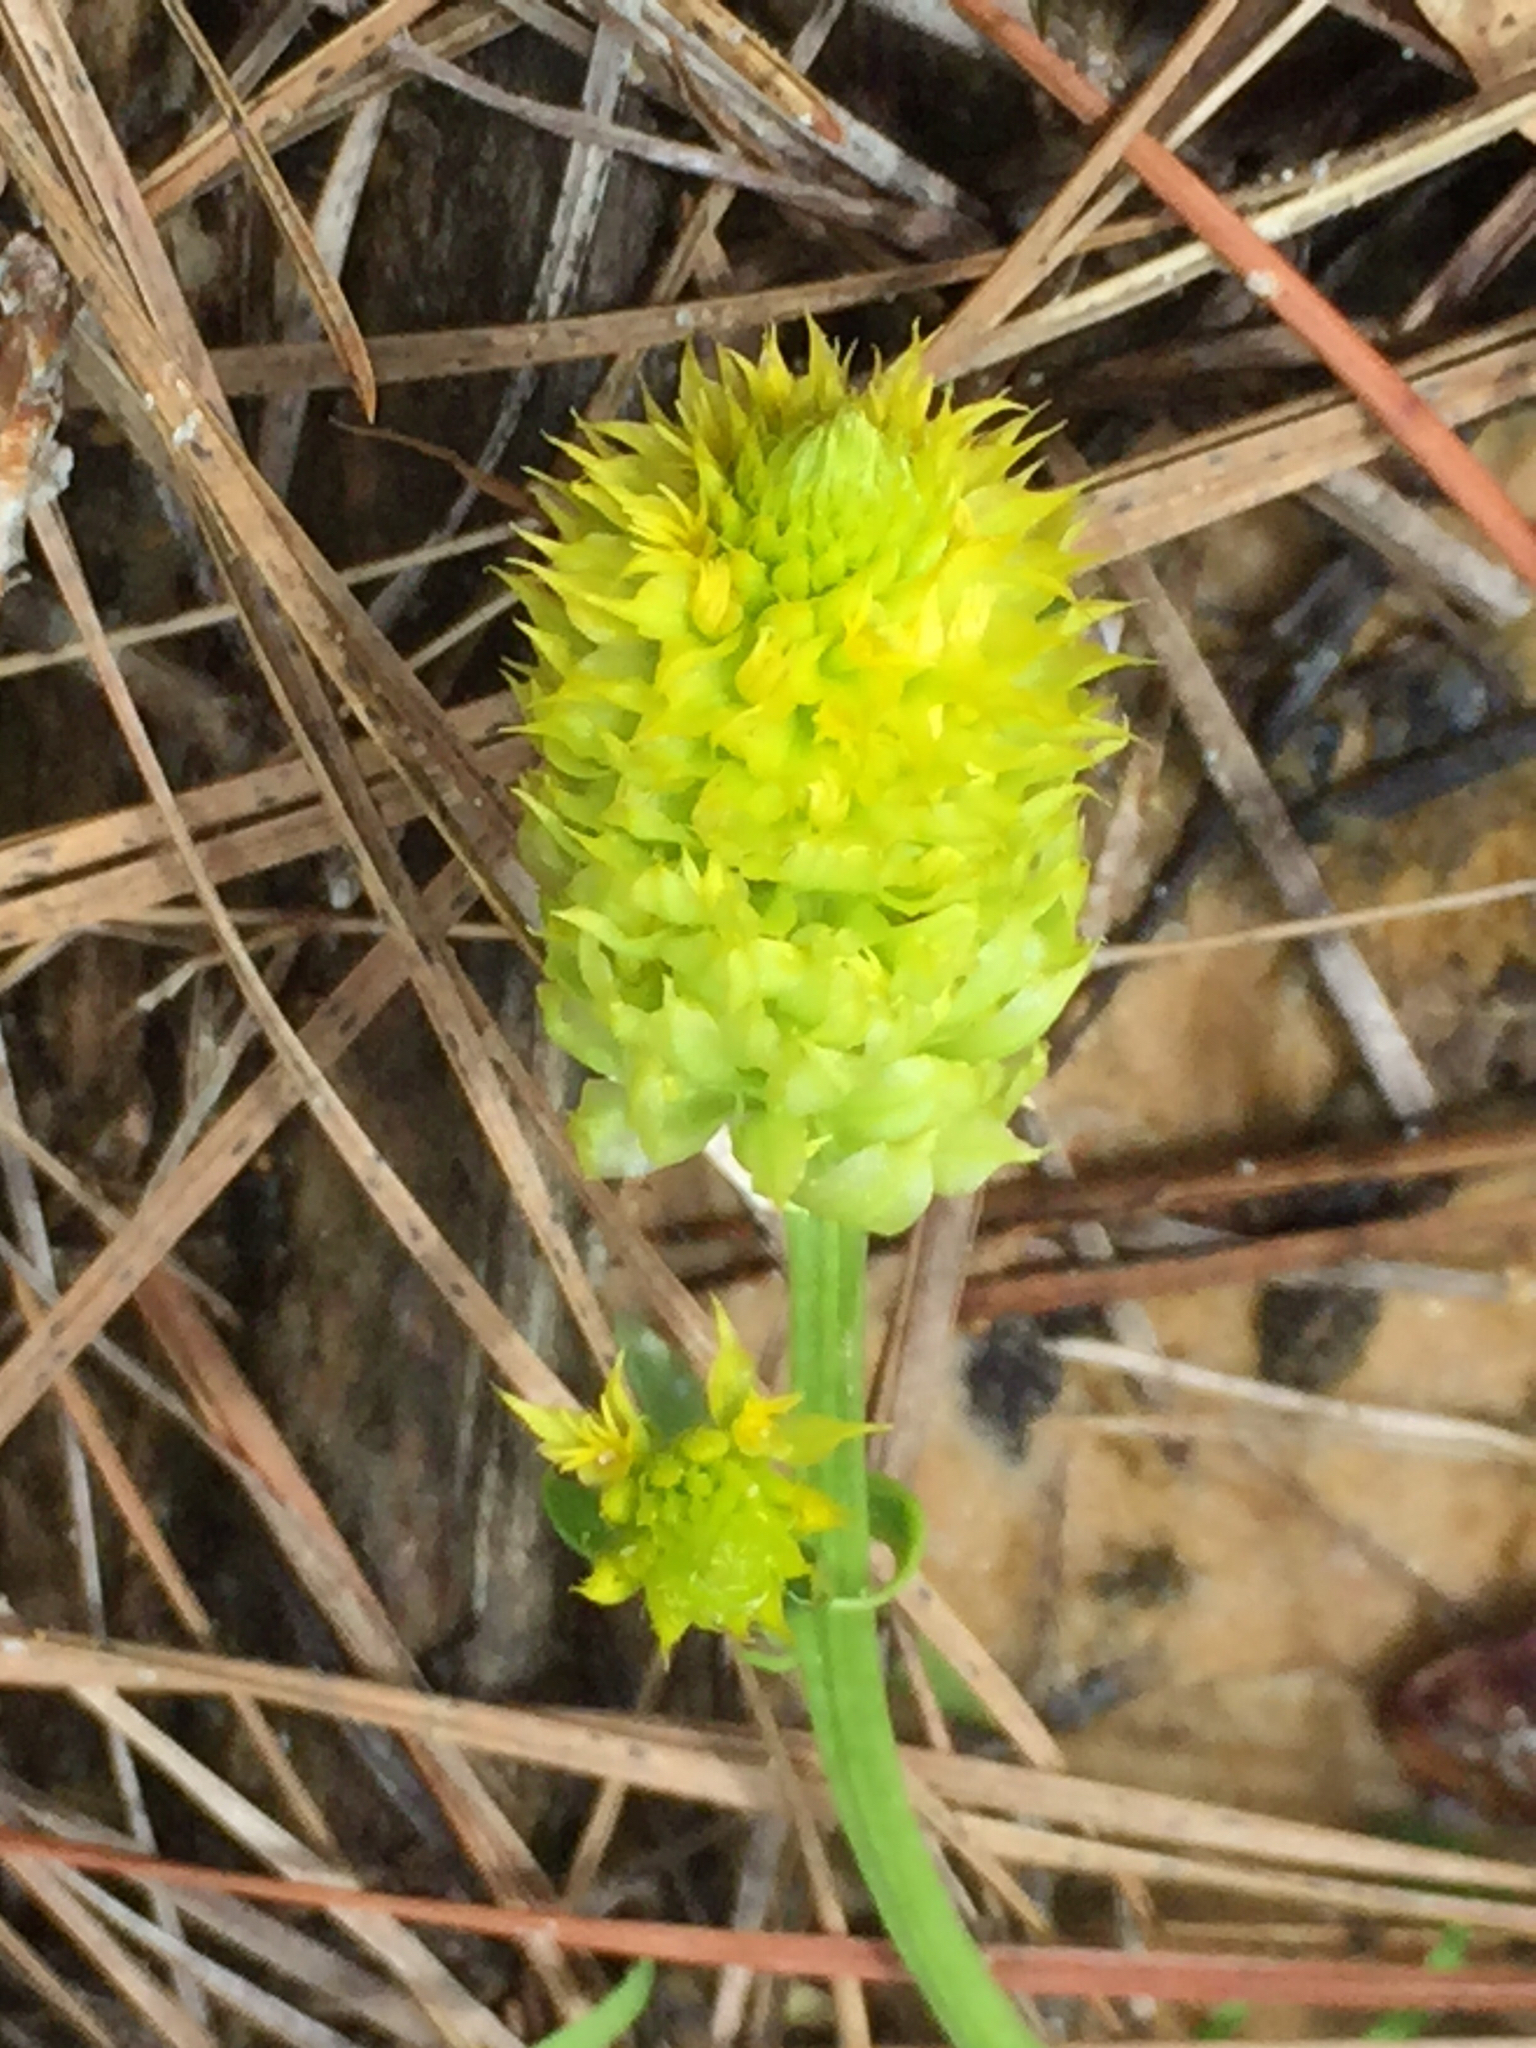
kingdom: Plantae
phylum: Tracheophyta
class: Magnoliopsida
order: Fabales
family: Polygalaceae
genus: Polygala
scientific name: Polygala nana
